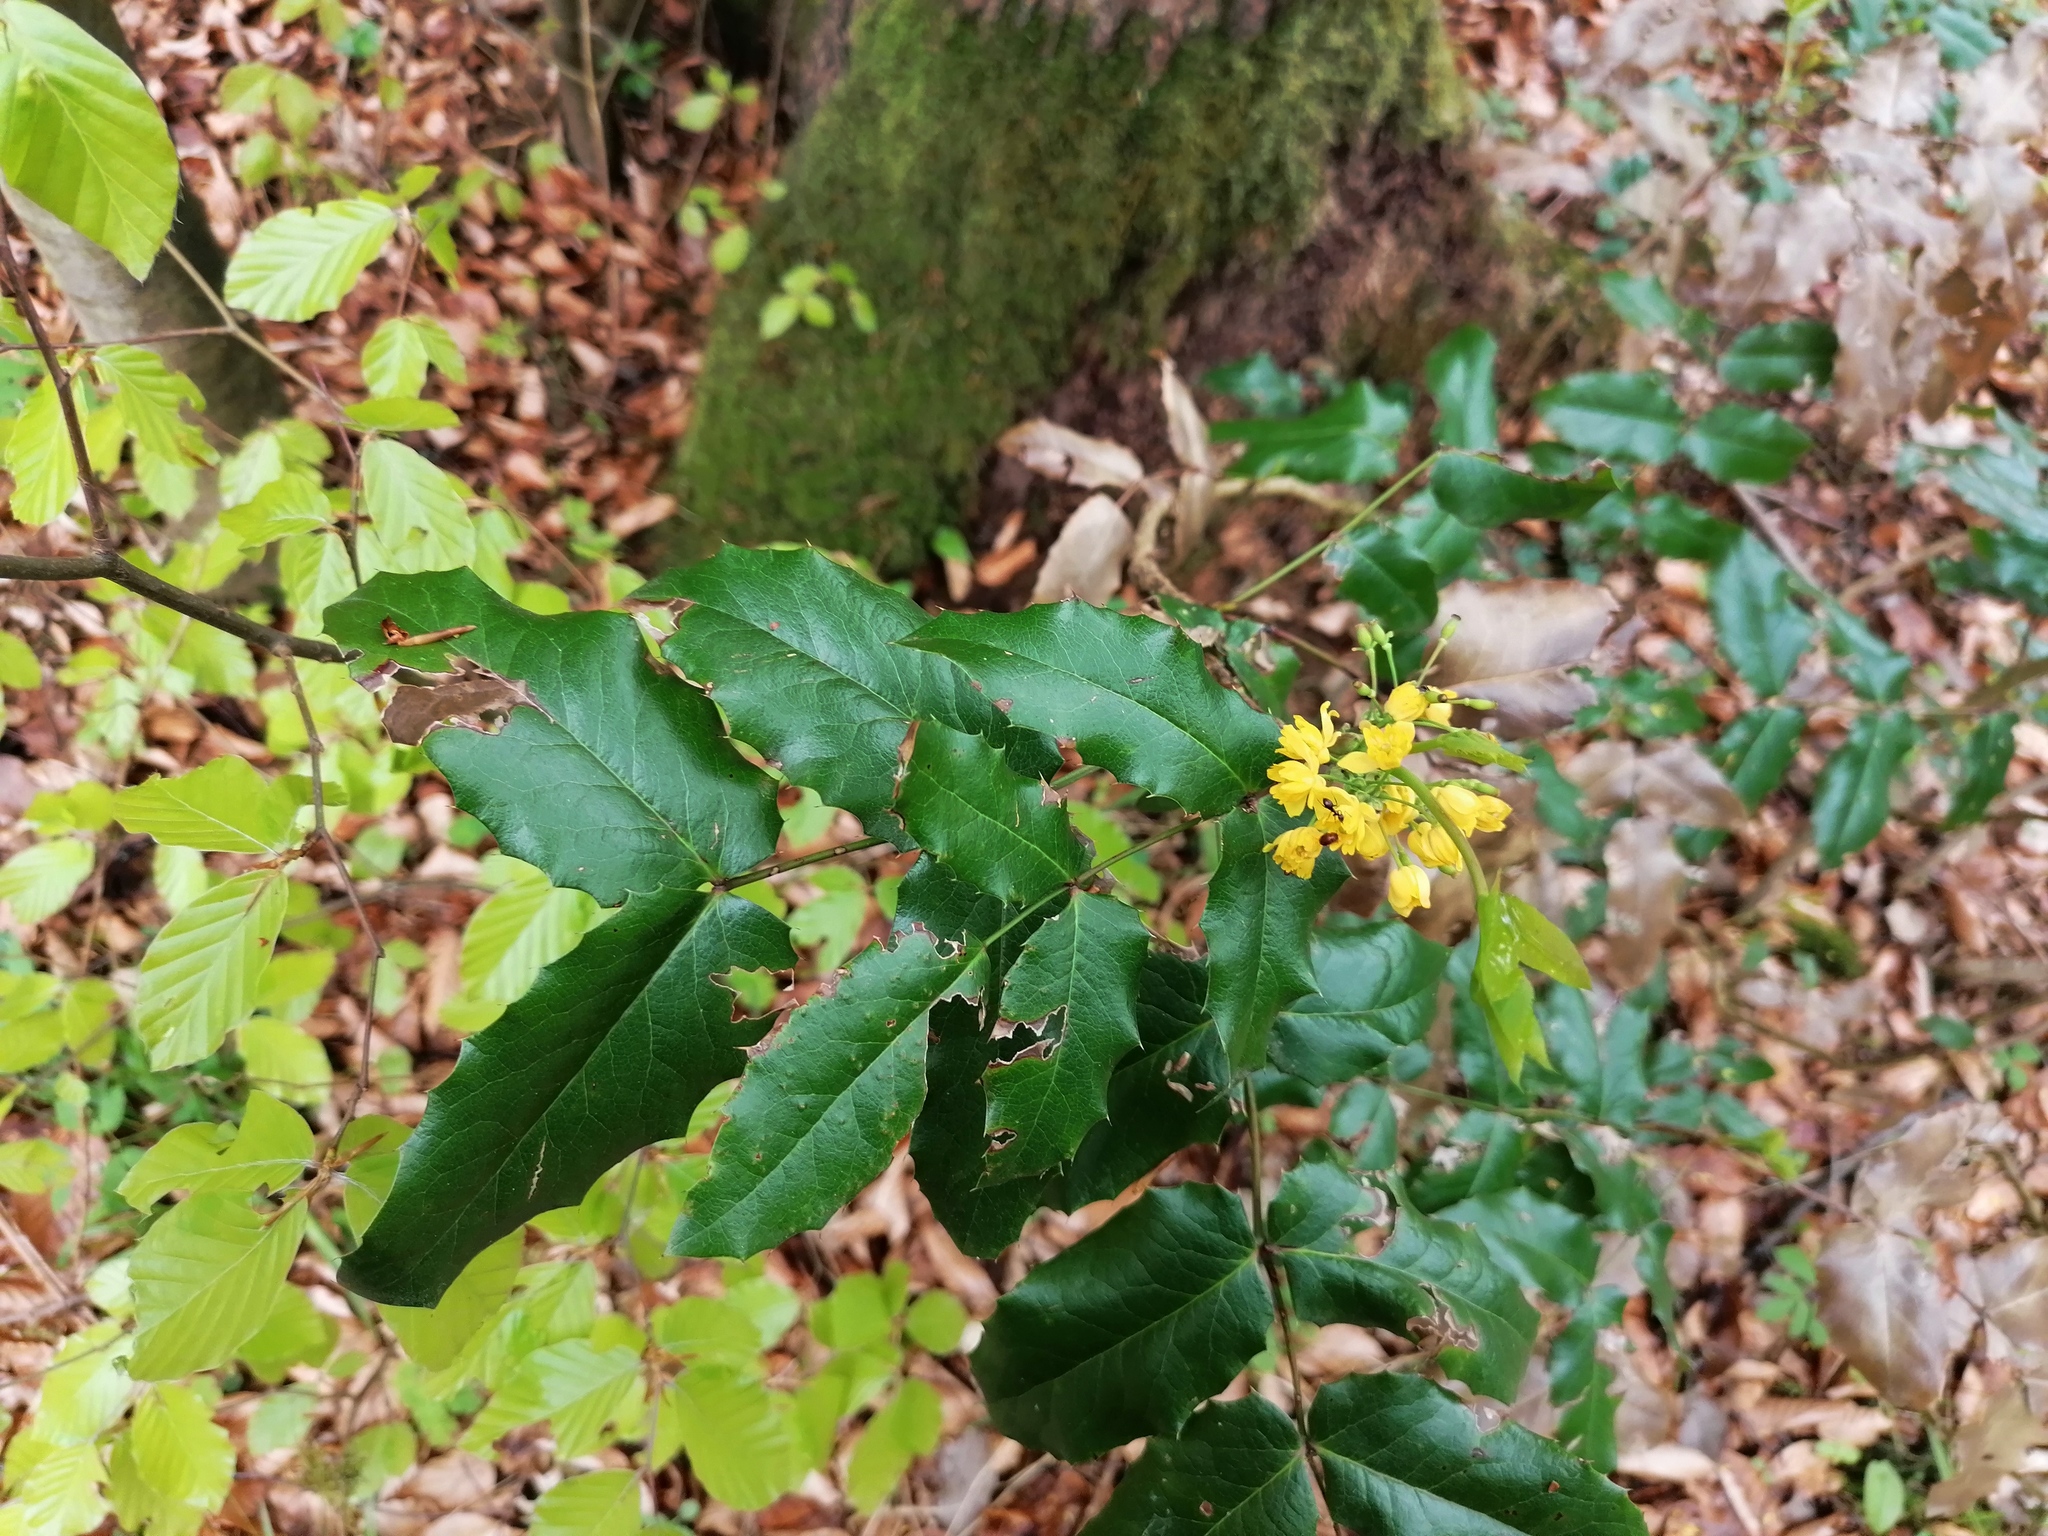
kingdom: Plantae
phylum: Tracheophyta
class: Magnoliopsida
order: Ranunculales
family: Berberidaceae
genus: Mahonia
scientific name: Mahonia aquifolium
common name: Oregon-grape
